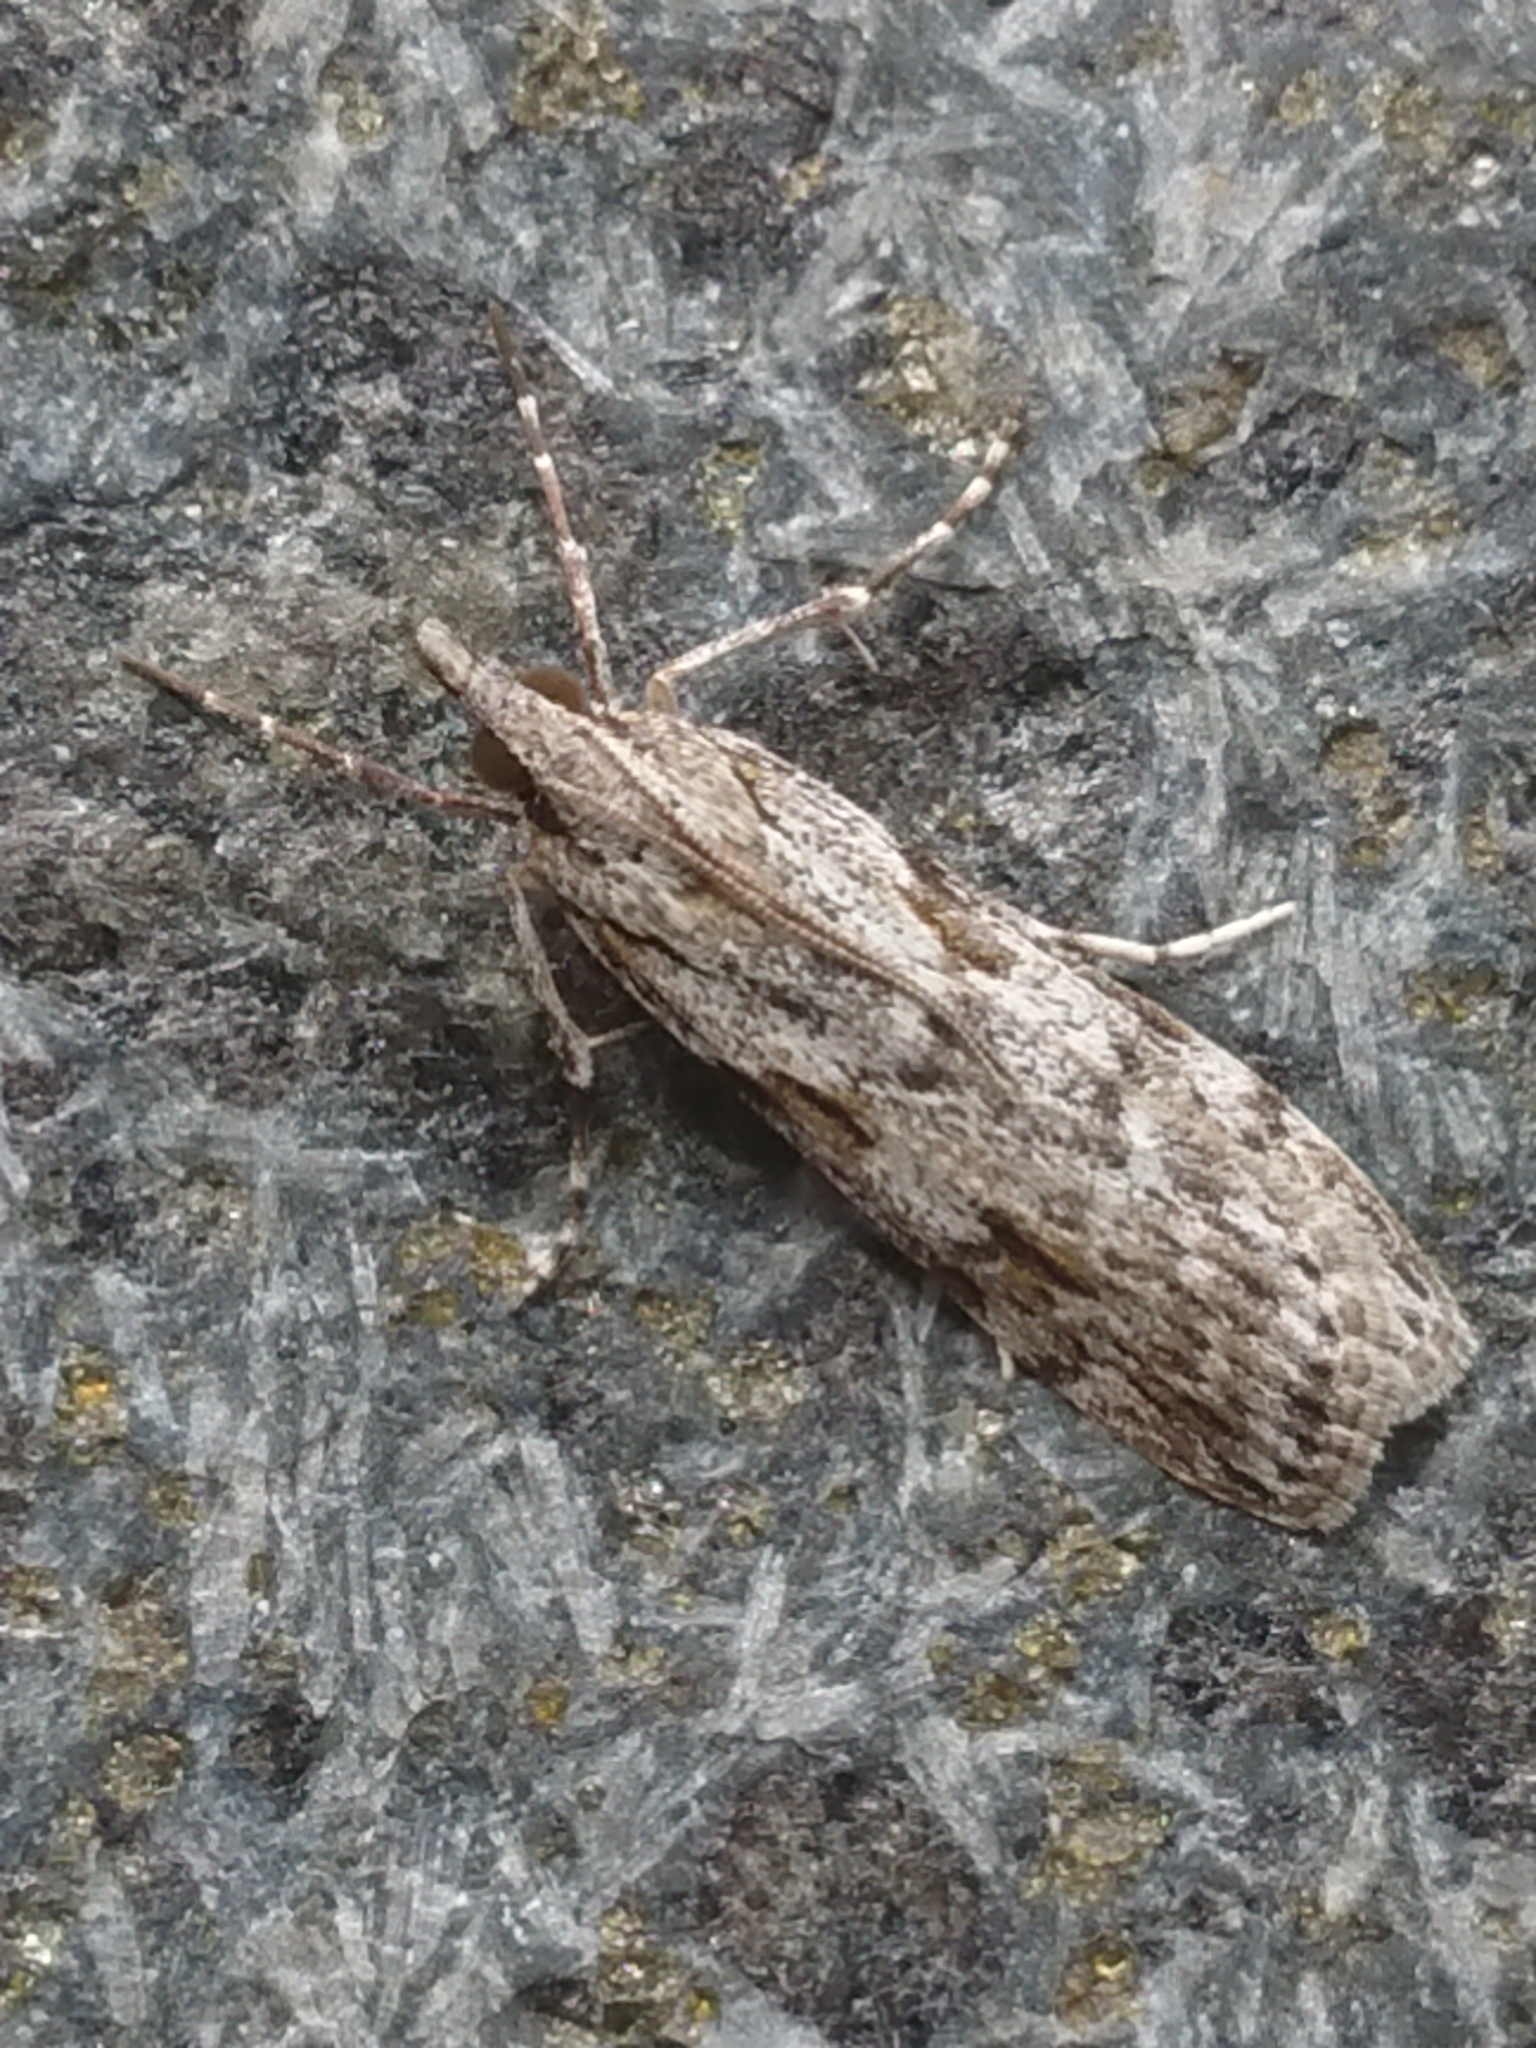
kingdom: Animalia
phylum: Arthropoda
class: Insecta
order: Lepidoptera
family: Crambidae
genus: Scoparia
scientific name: Scoparia halopis
